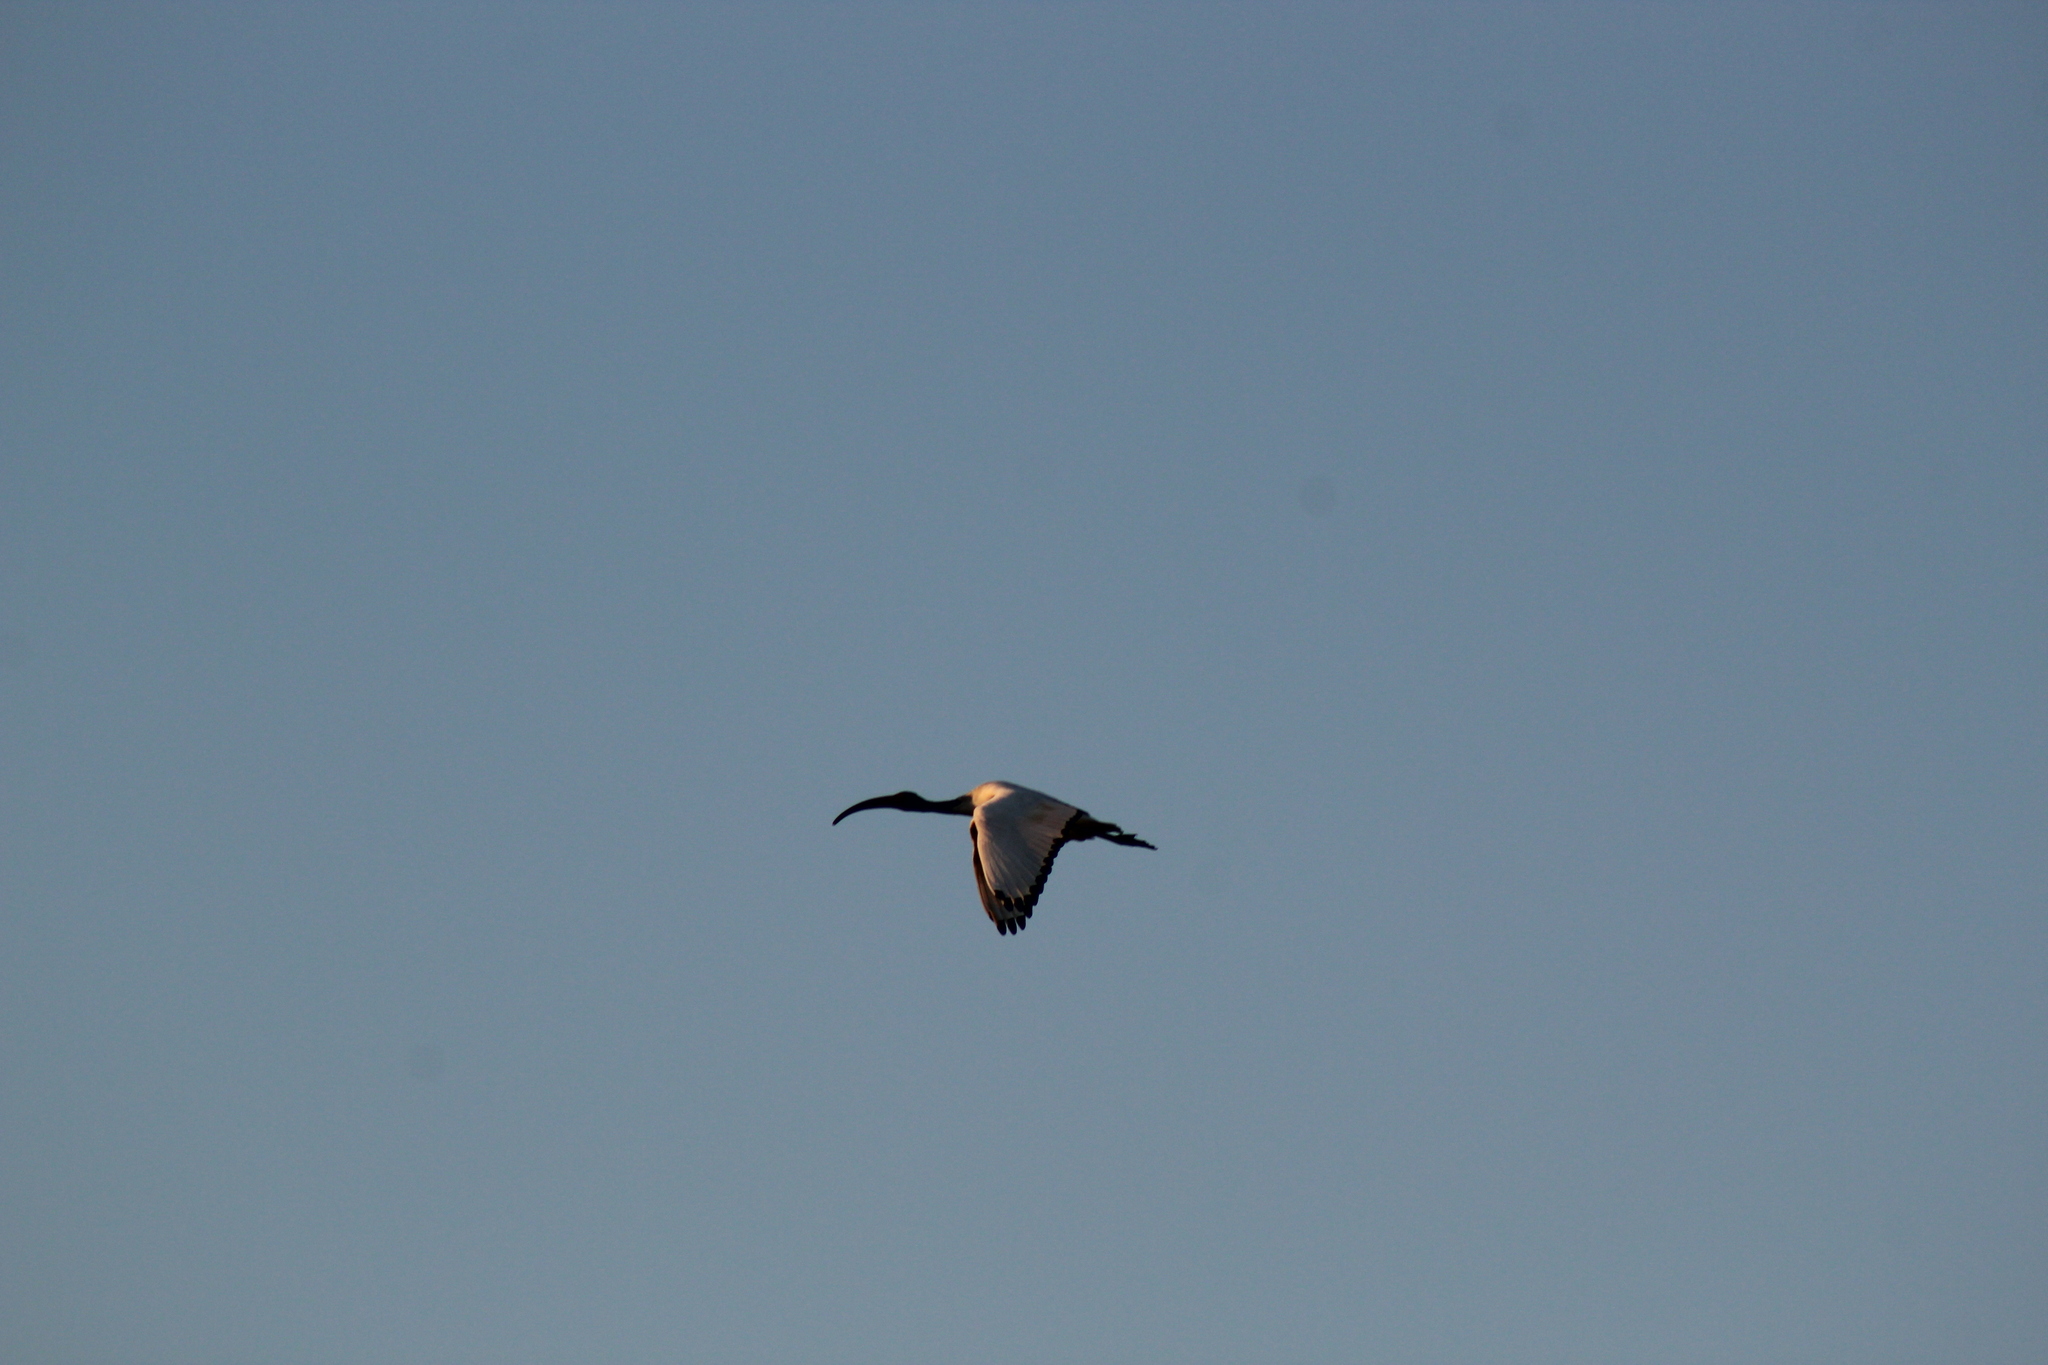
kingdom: Animalia
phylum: Chordata
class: Aves
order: Pelecaniformes
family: Threskiornithidae
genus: Threskiornis
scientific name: Threskiornis aethiopicus
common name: Sacred ibis
